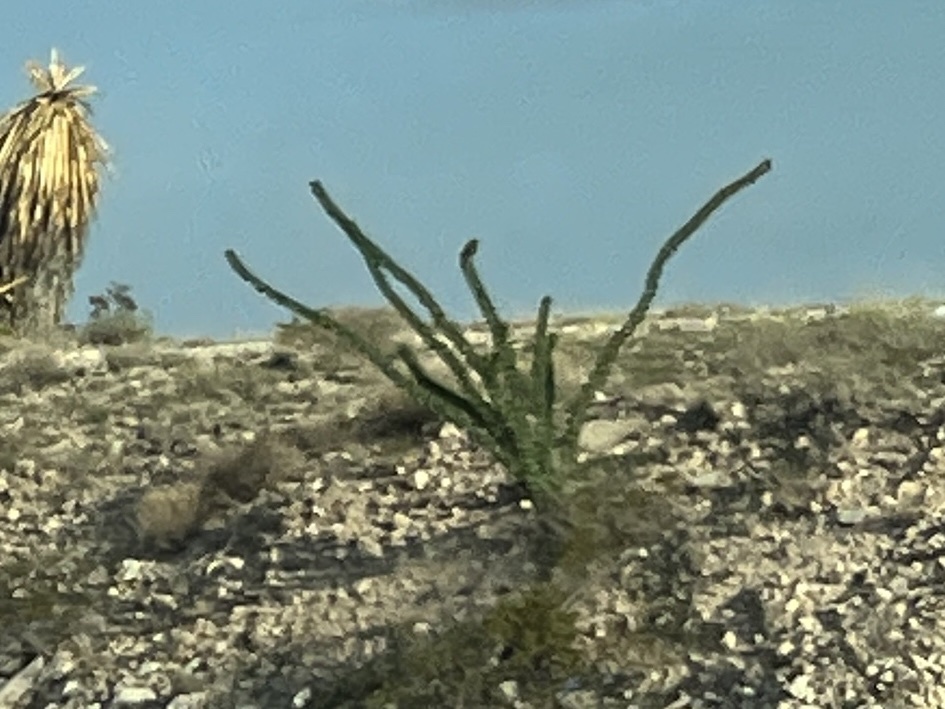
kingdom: Plantae
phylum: Tracheophyta
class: Magnoliopsida
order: Ericales
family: Fouquieriaceae
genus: Fouquieria
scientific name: Fouquieria splendens
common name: Vine-cactus
